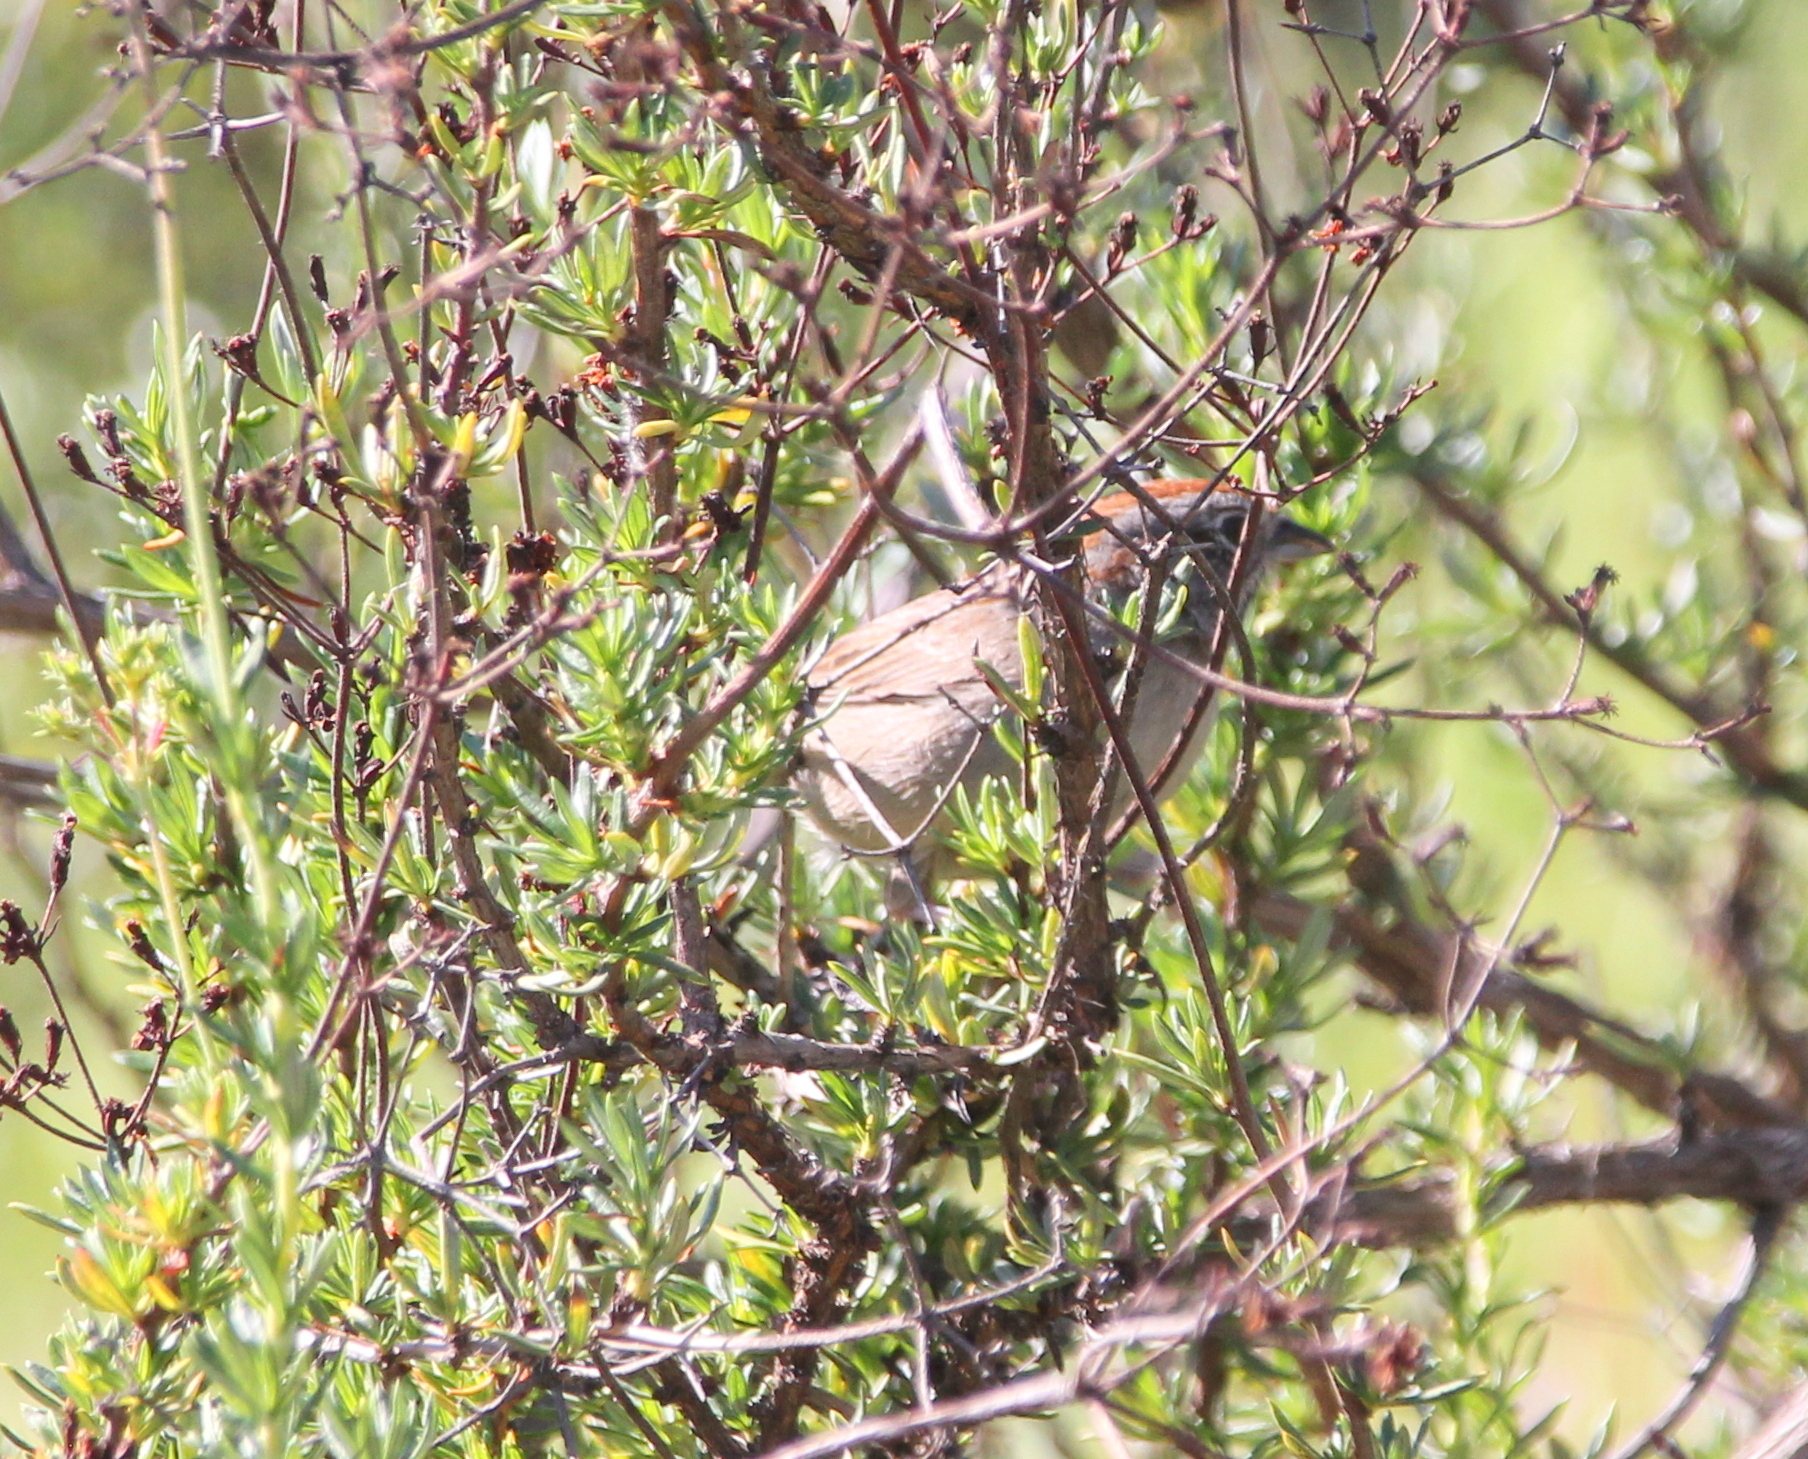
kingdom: Animalia
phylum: Chordata
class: Aves
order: Passeriformes
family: Passerellidae
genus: Aimophila
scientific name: Aimophila ruficeps
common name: Rufous-crowned sparrow
